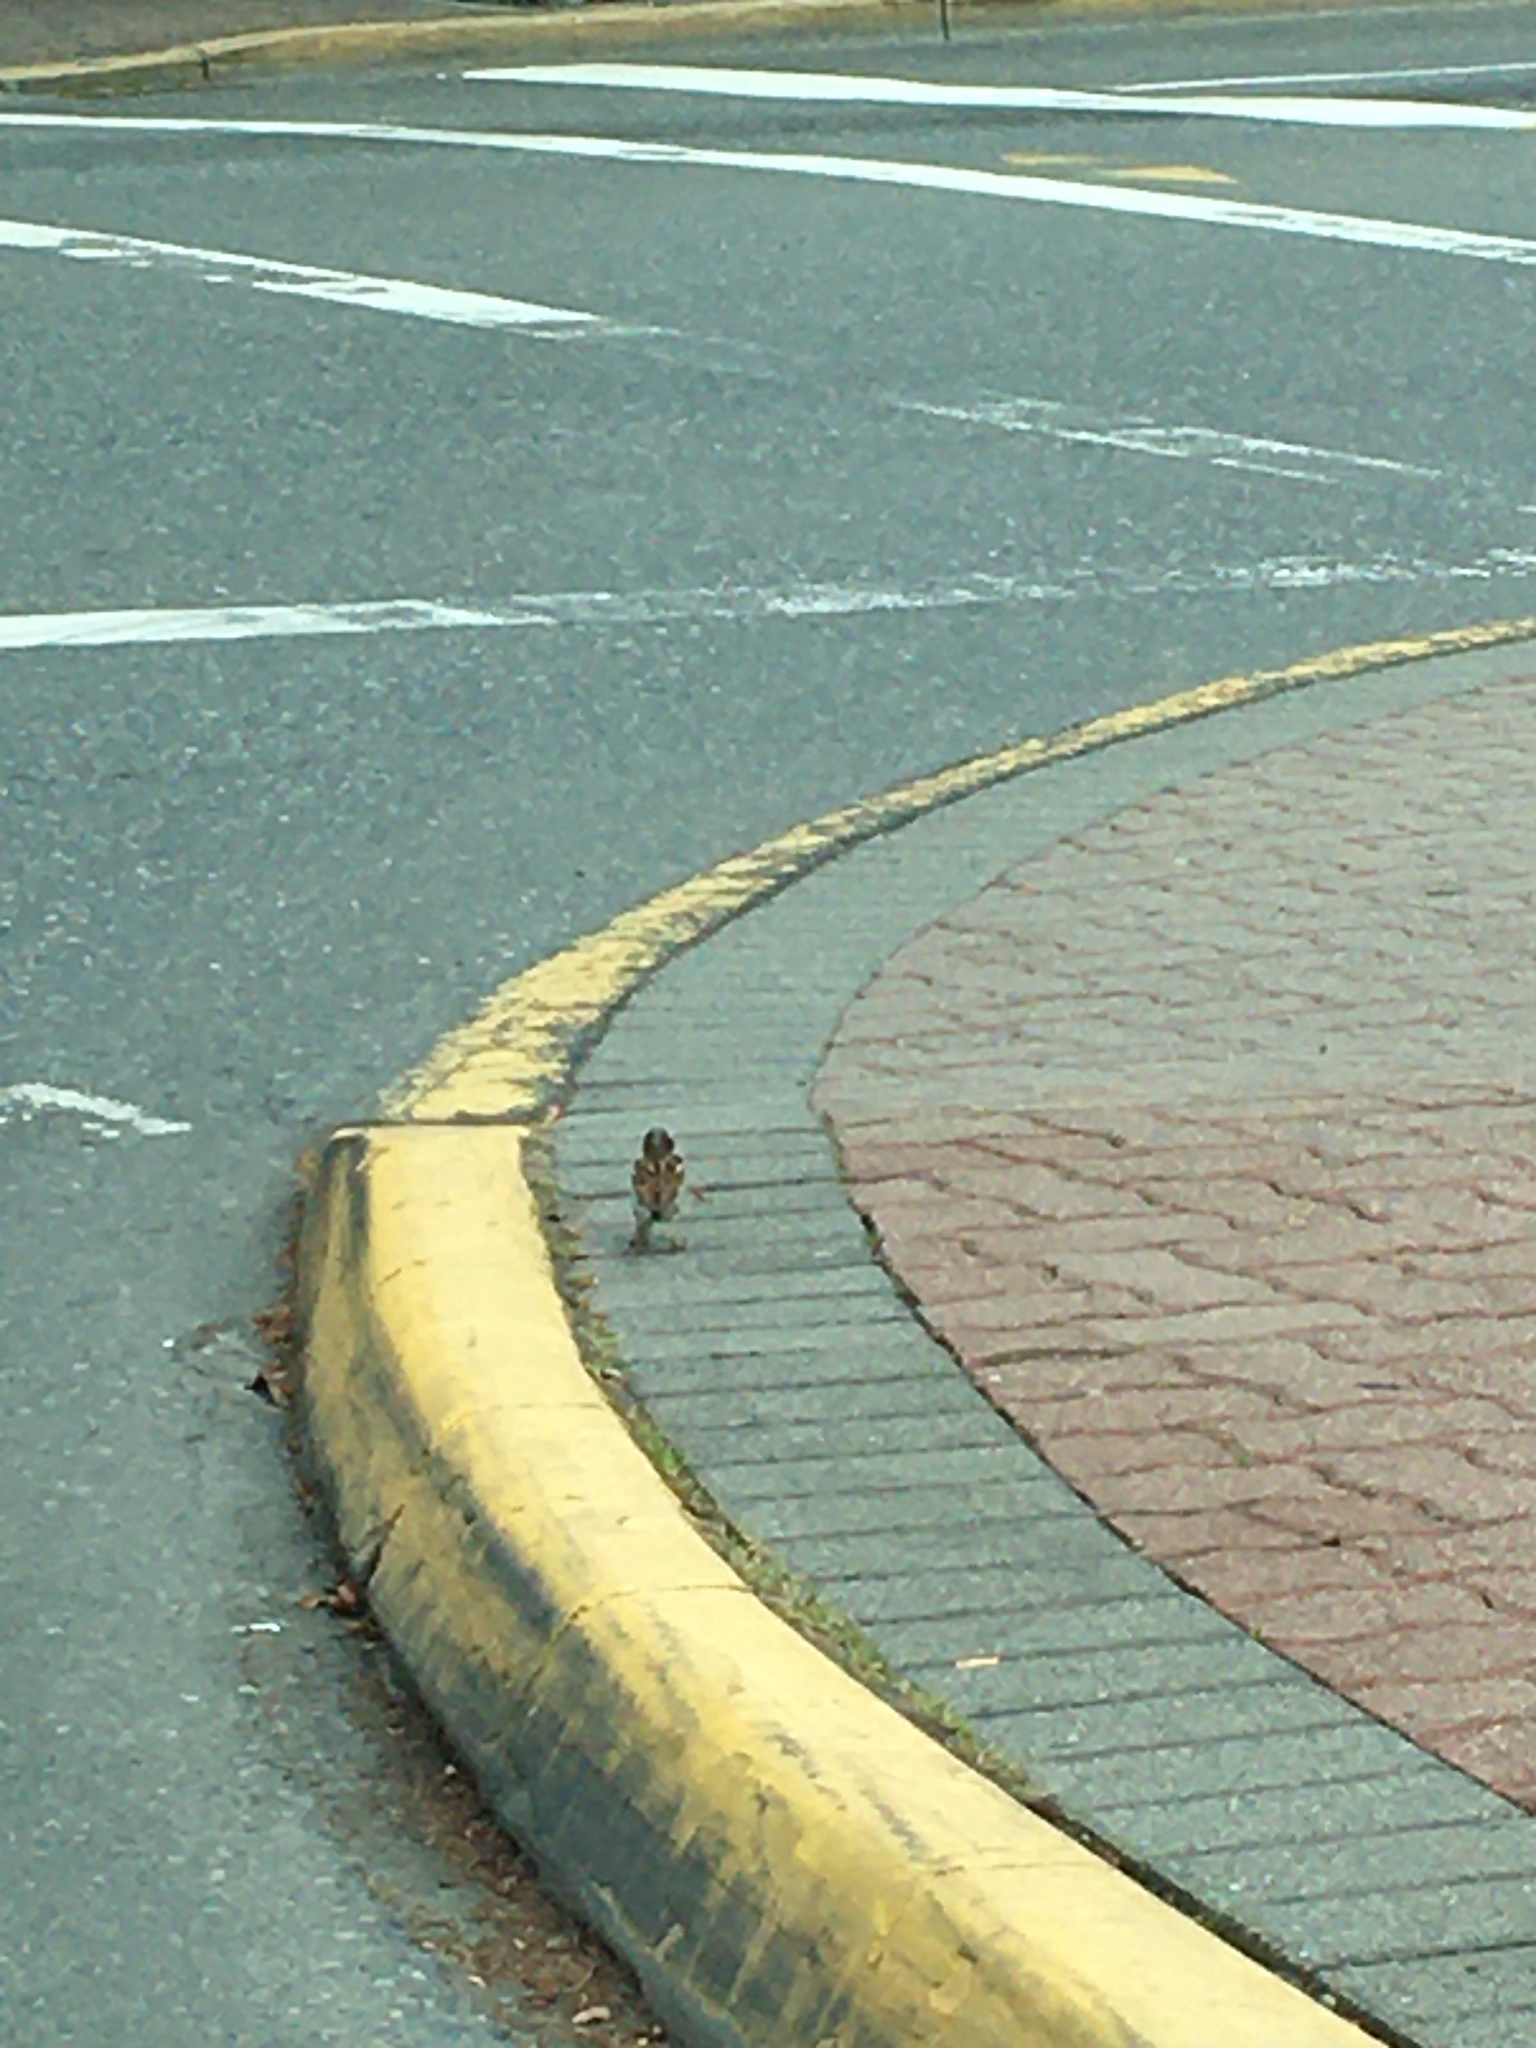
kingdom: Animalia
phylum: Chordata
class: Aves
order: Passeriformes
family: Passeridae
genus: Passer
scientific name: Passer domesticus
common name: House sparrow
